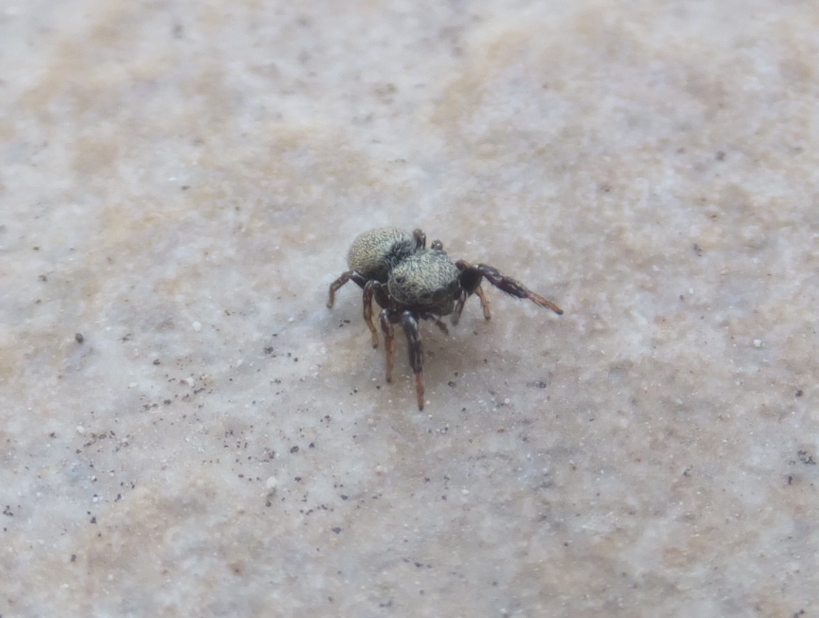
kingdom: Animalia
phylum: Arthropoda
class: Arachnida
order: Araneae
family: Salticidae
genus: Sibianor
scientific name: Sibianor aurocinctus
